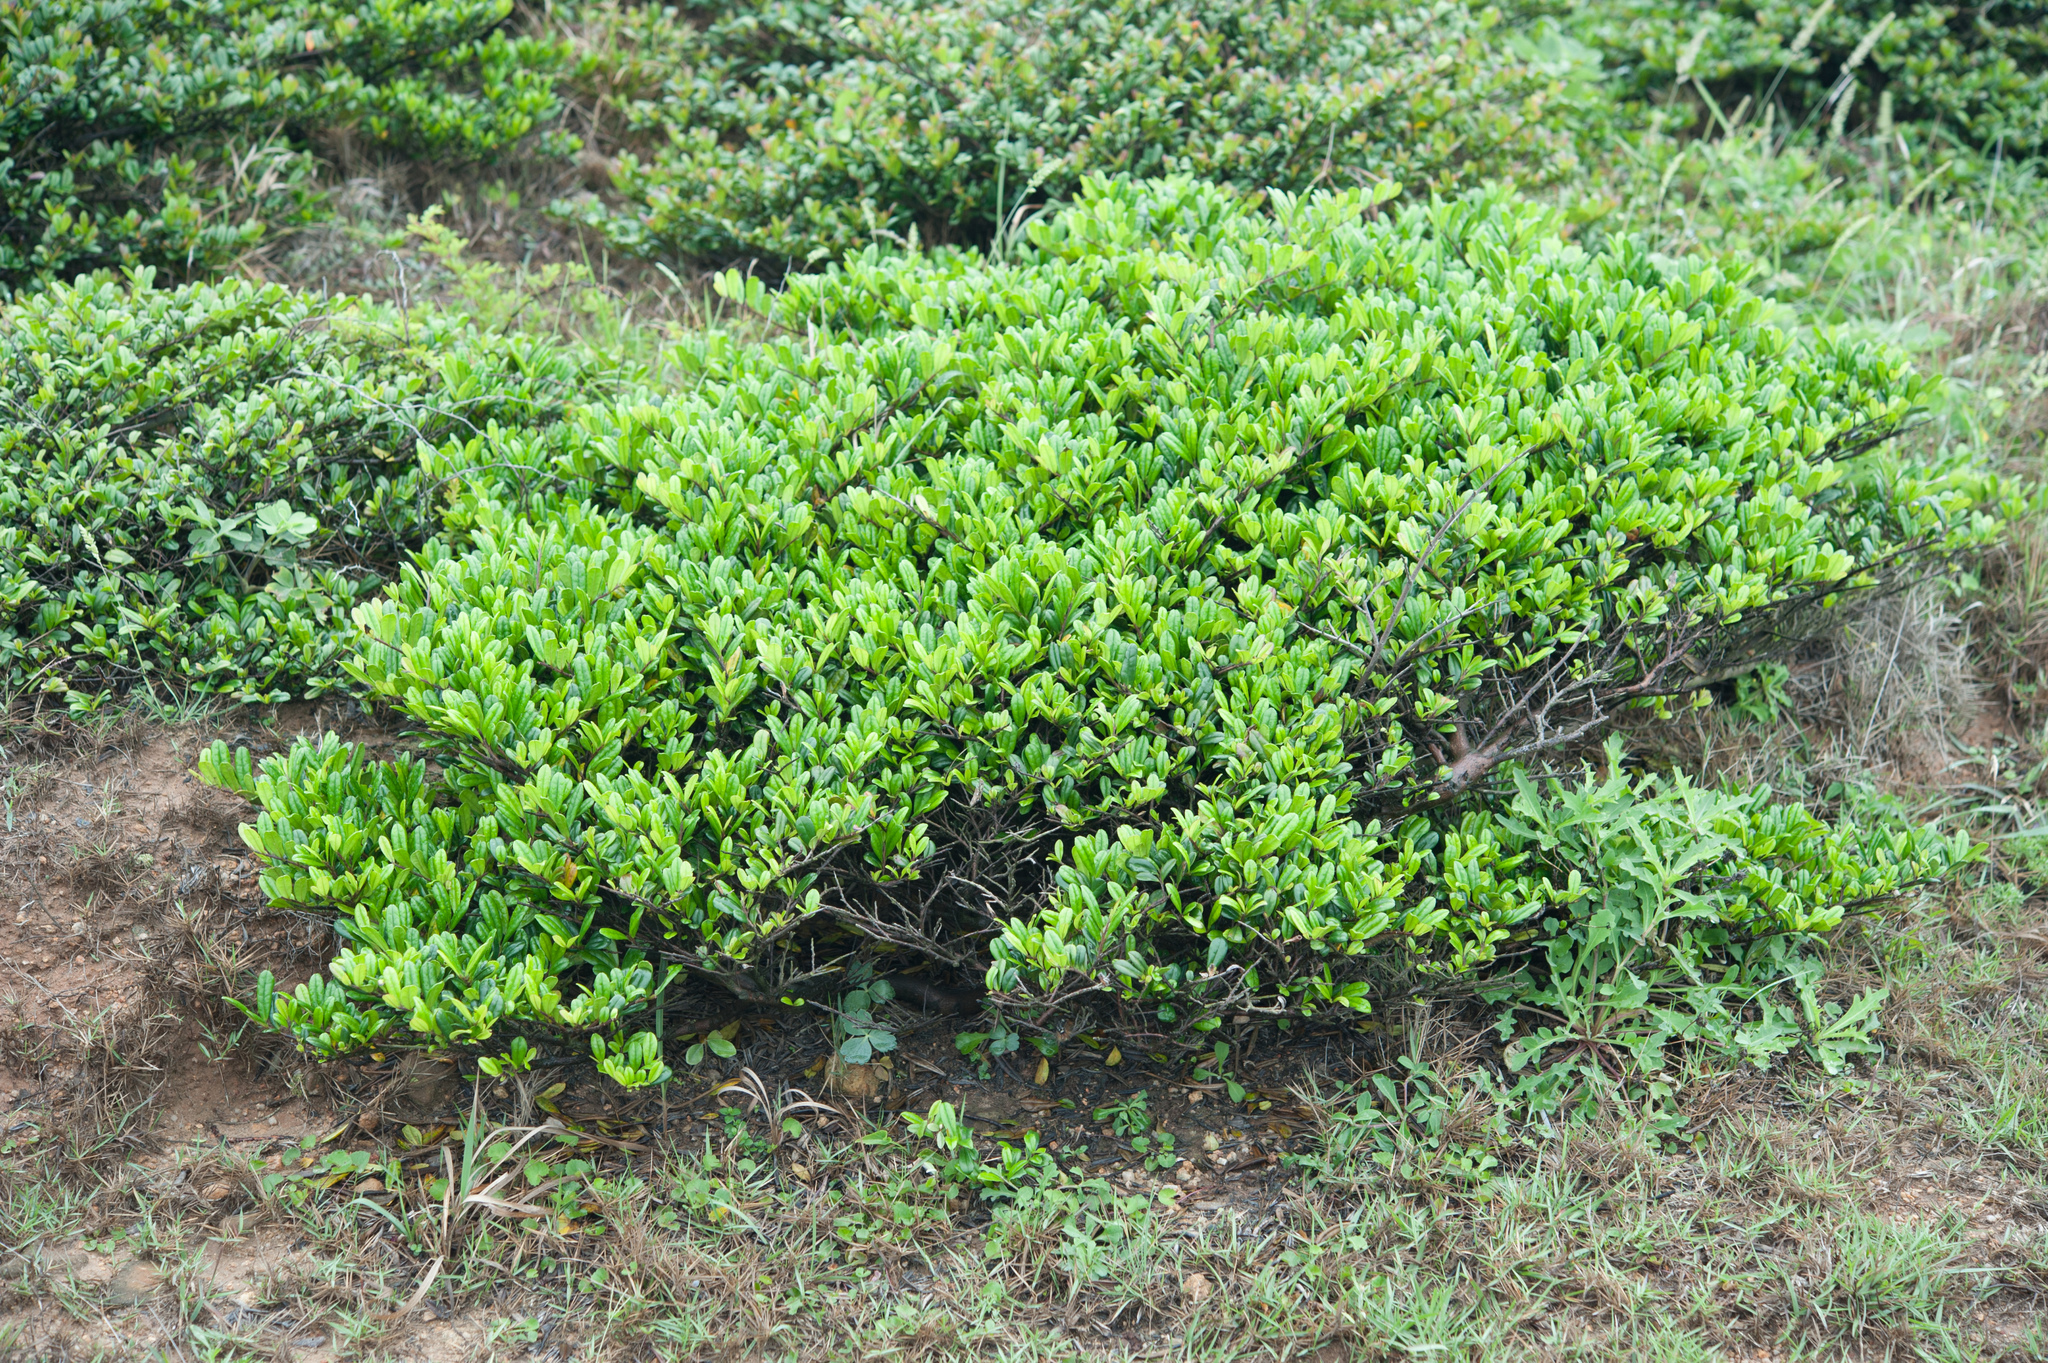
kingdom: Plantae
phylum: Tracheophyta
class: Magnoliopsida
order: Ericales
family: Pentaphylacaceae
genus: Eurya
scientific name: Eurya emarginata
